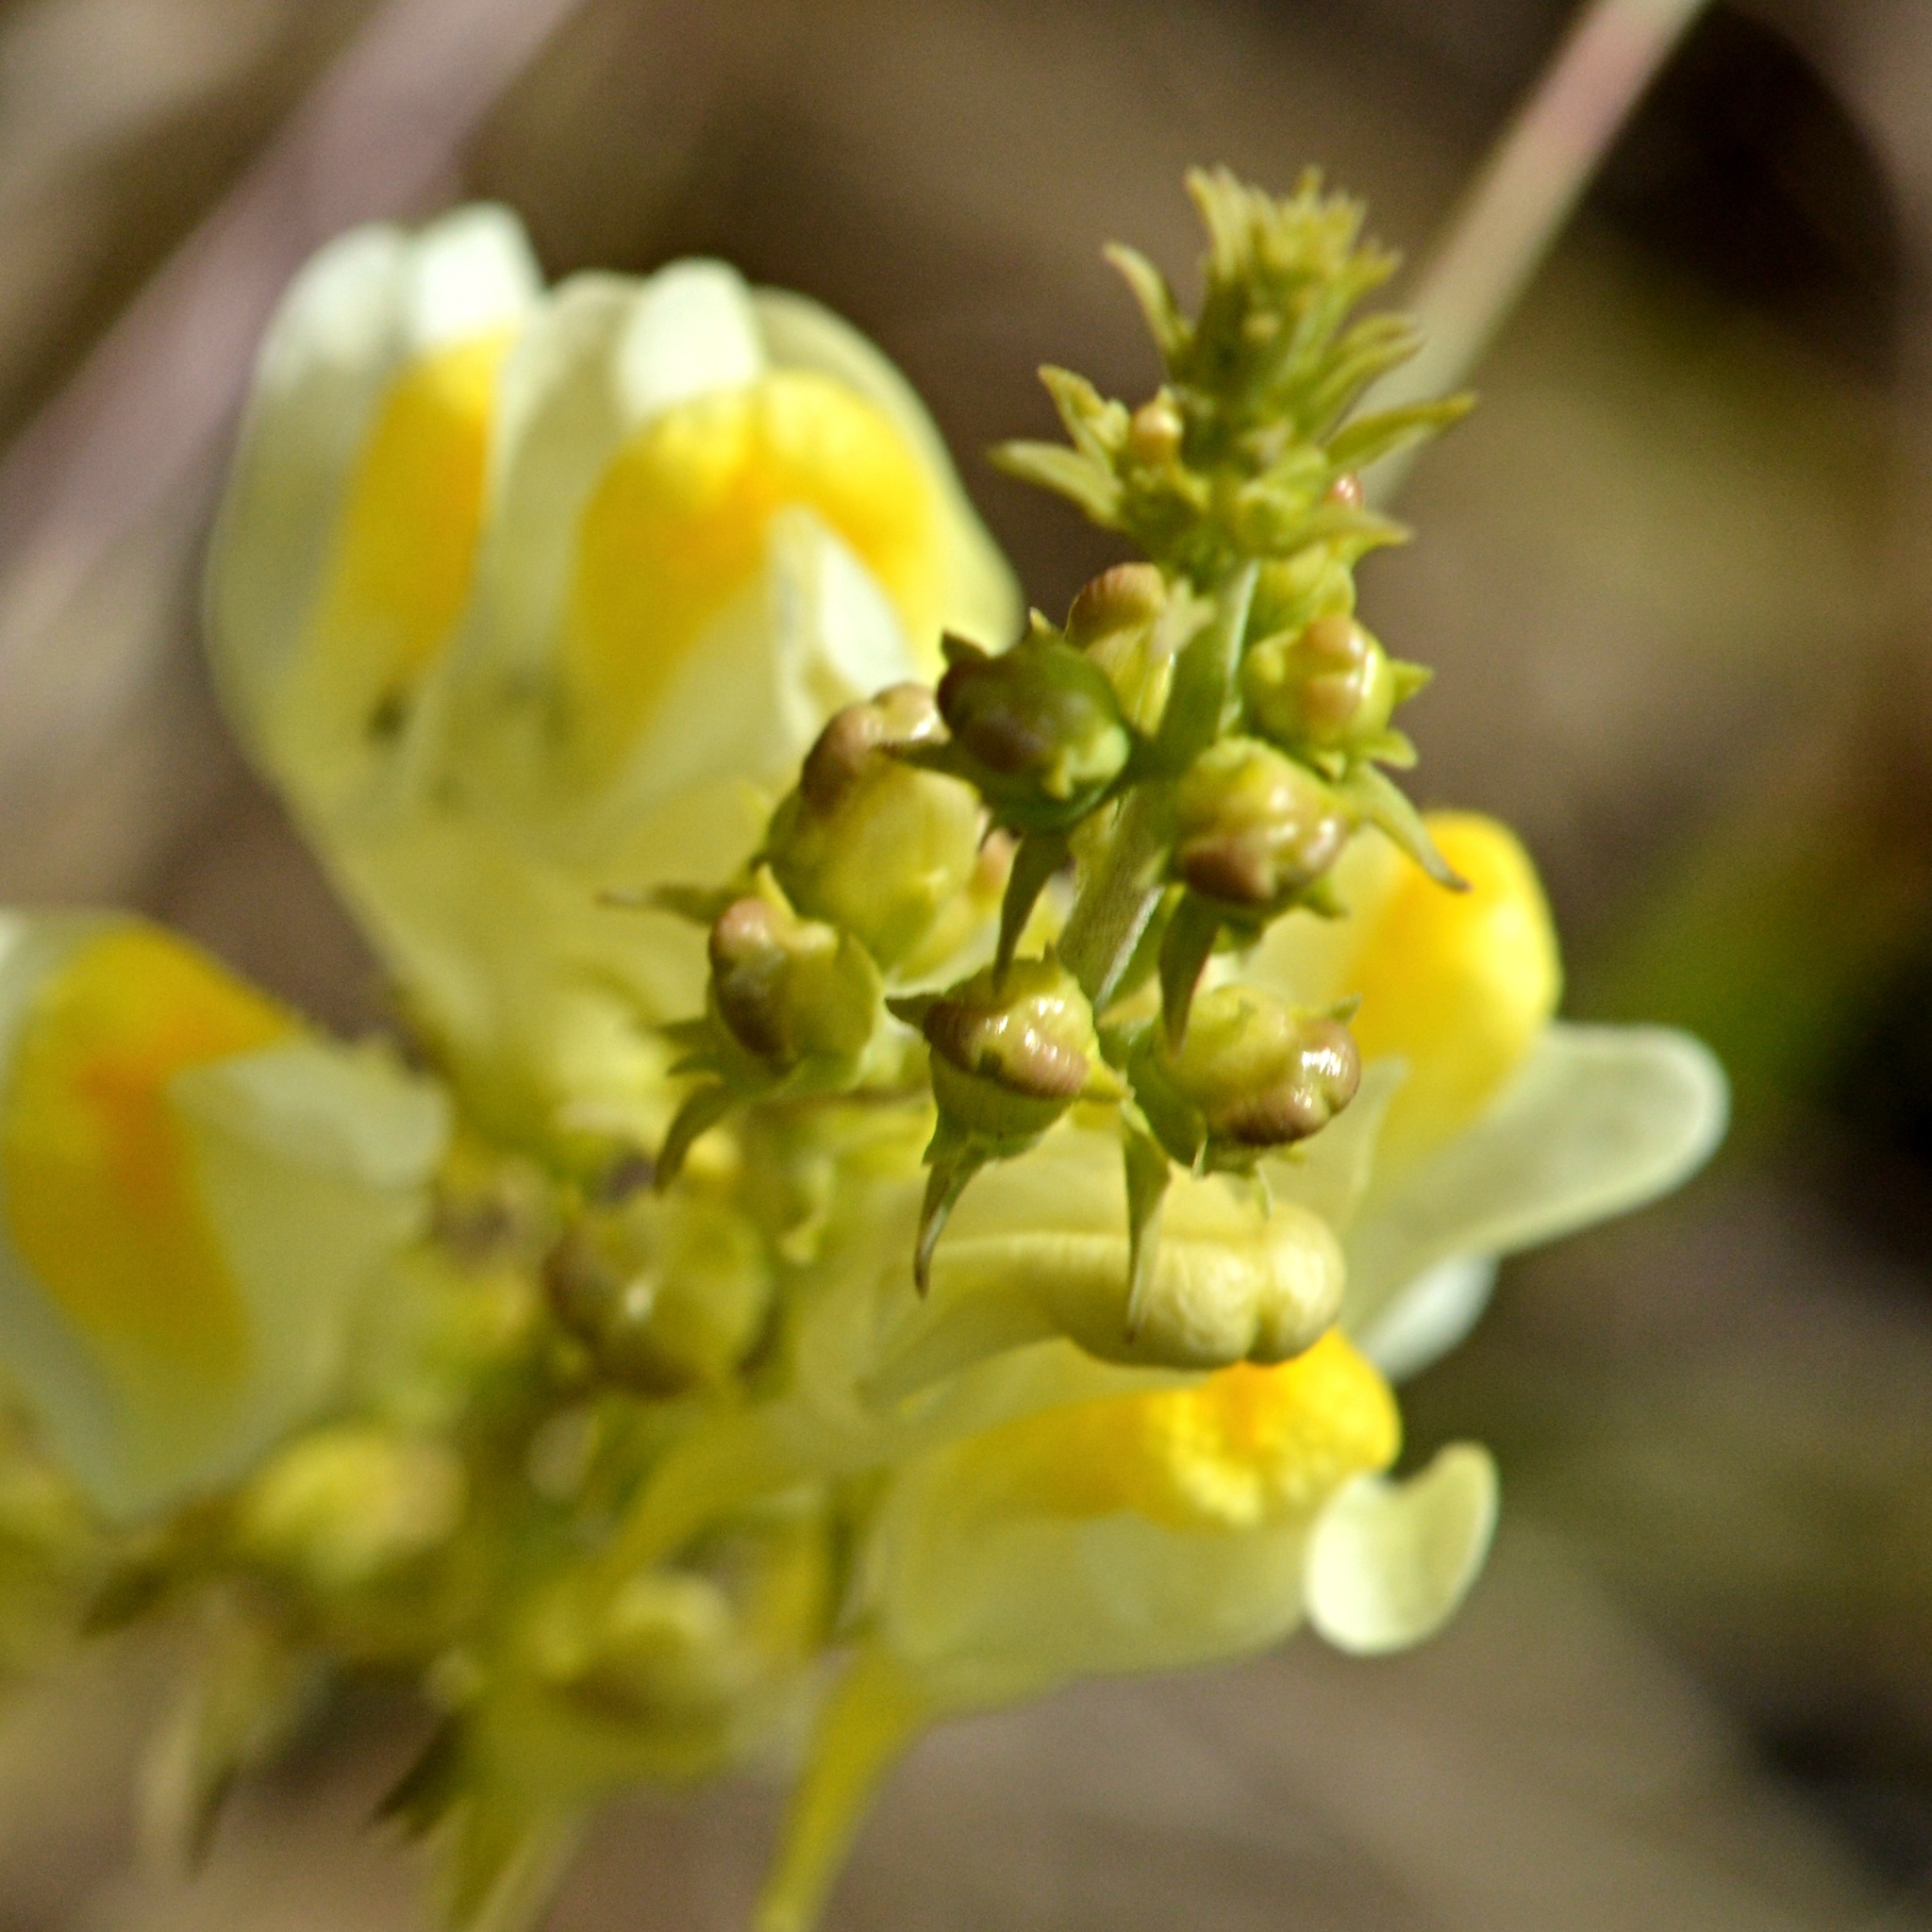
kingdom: Plantae
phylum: Tracheophyta
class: Magnoliopsida
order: Lamiales
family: Plantaginaceae
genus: Linaria
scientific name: Linaria vulgaris
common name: Butter and eggs
